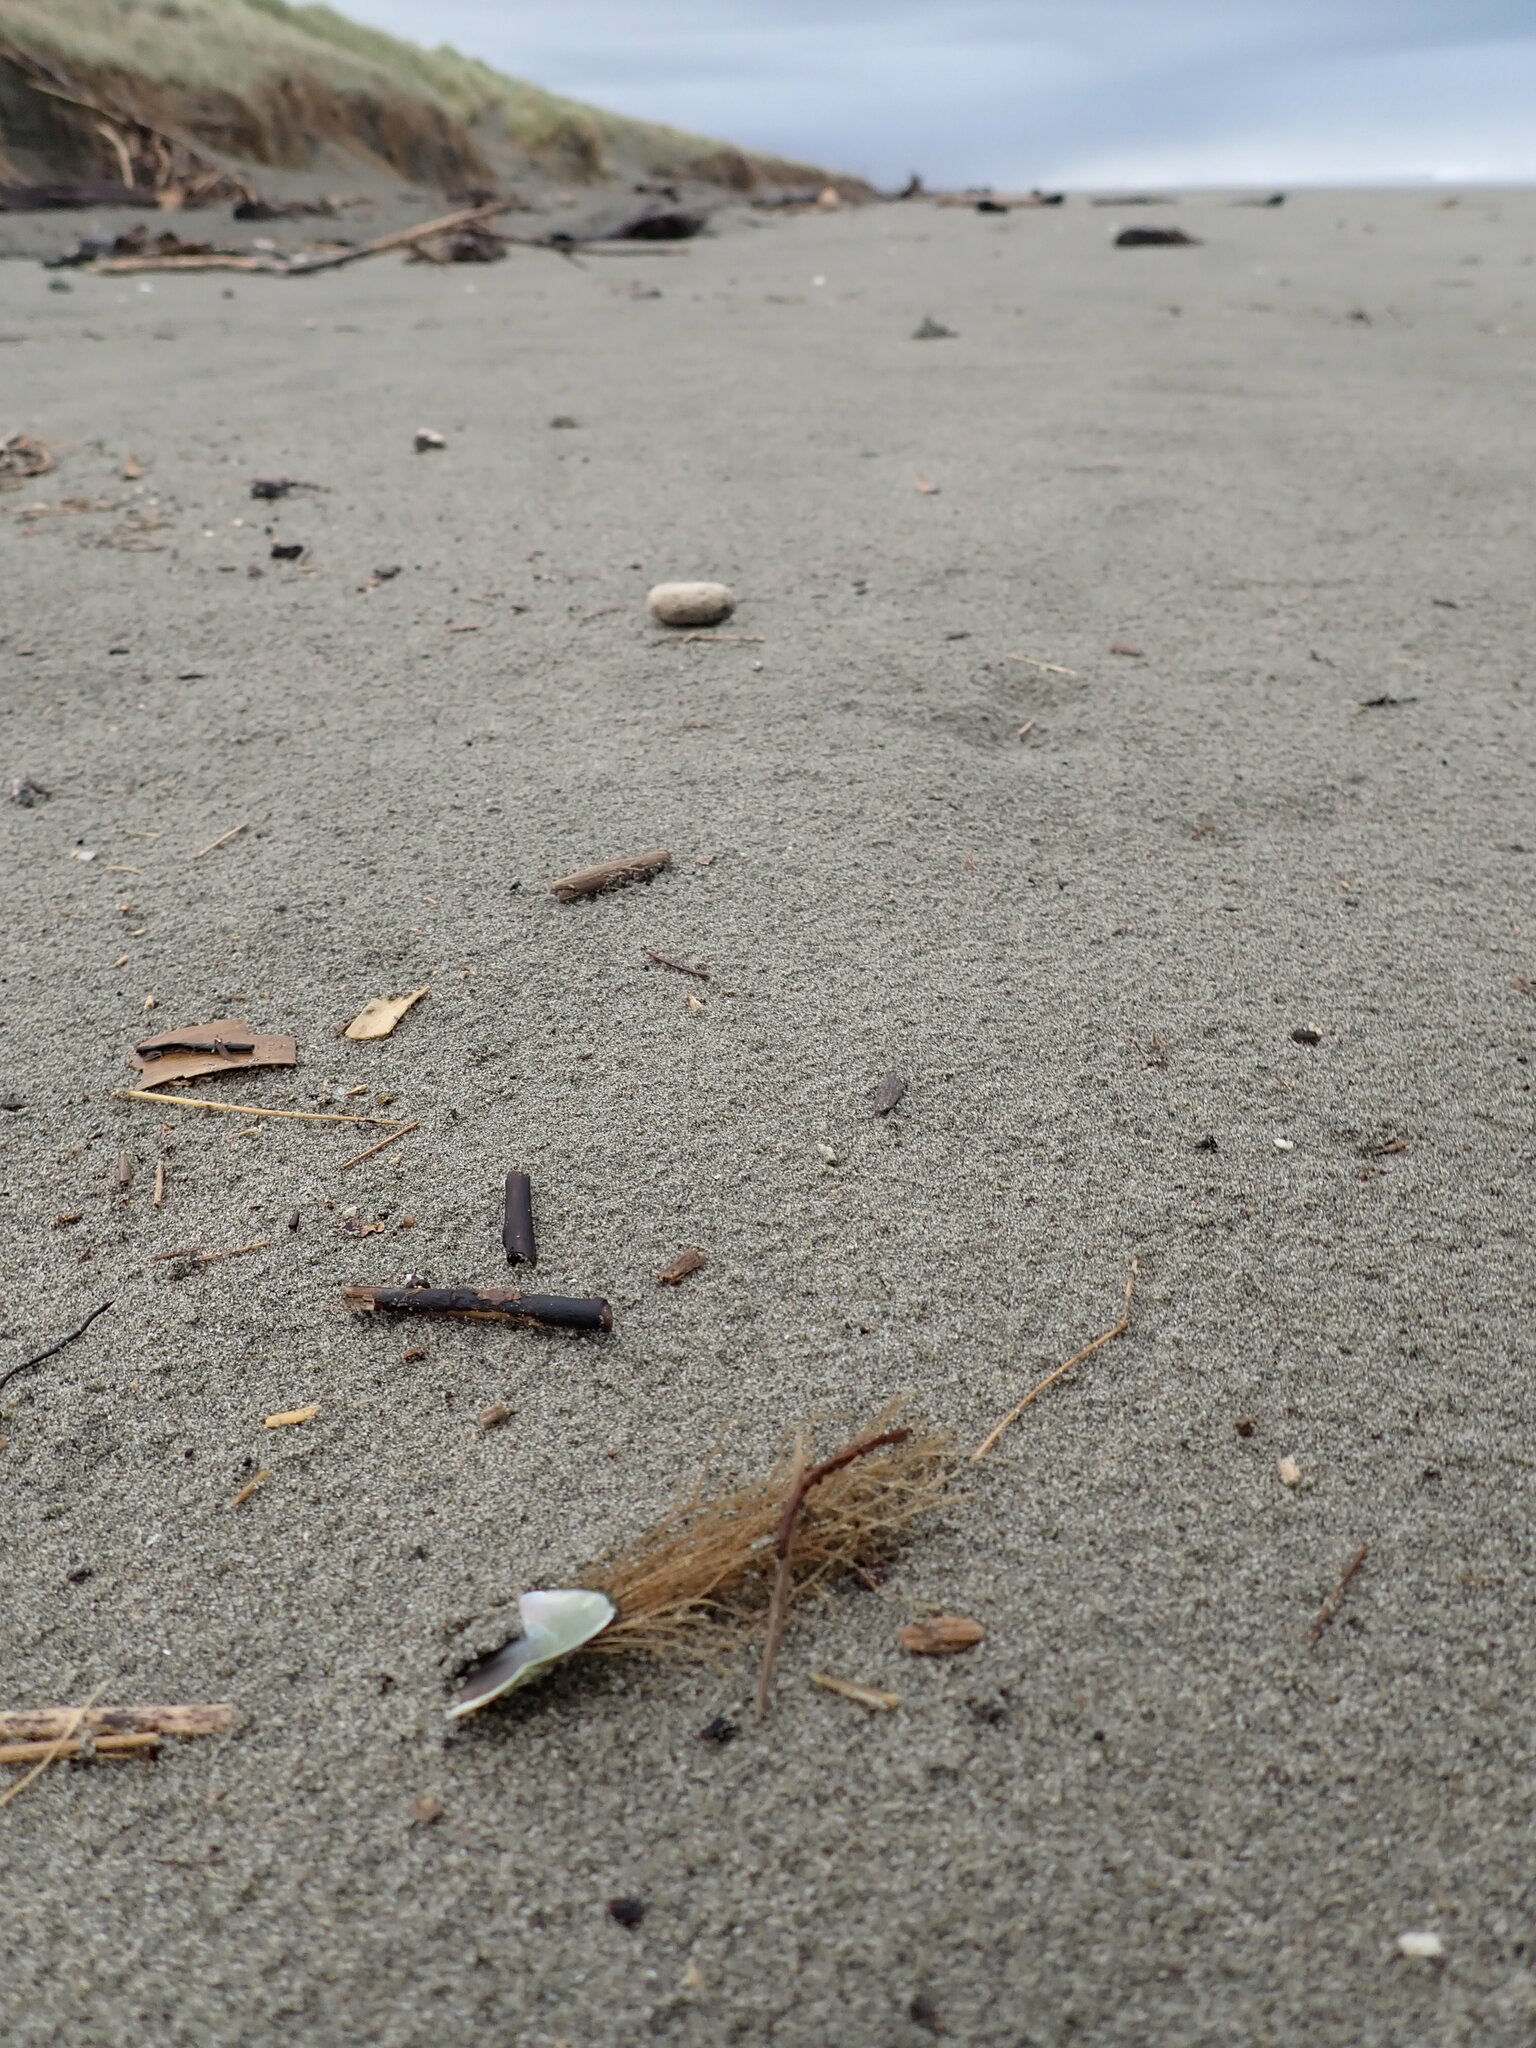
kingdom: Animalia
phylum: Cnidaria
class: Hydrozoa
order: Leptothecata
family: Sertulariidae
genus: Amphisbetia
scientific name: Amphisbetia bispinosa
